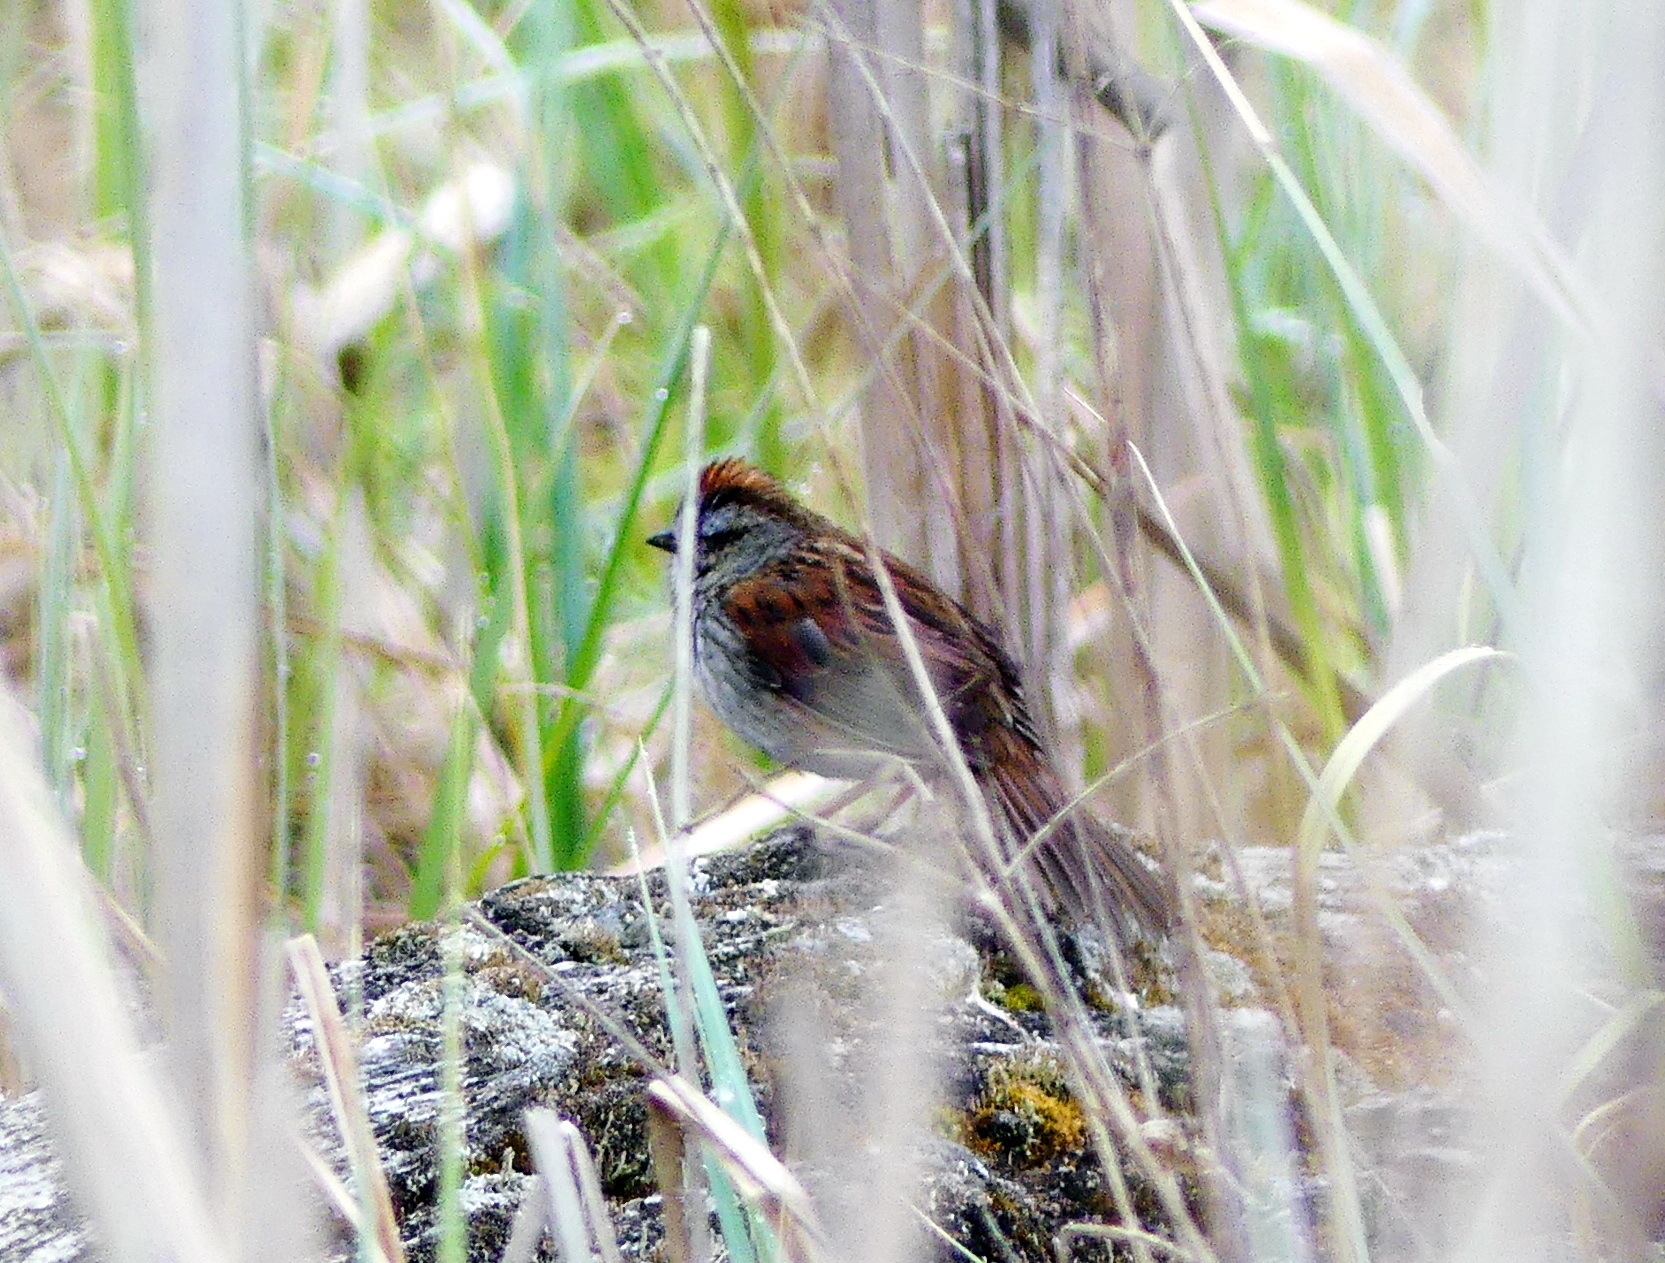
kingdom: Animalia
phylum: Chordata
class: Aves
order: Passeriformes
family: Passerellidae
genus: Melospiza
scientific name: Melospiza georgiana
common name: Swamp sparrow
